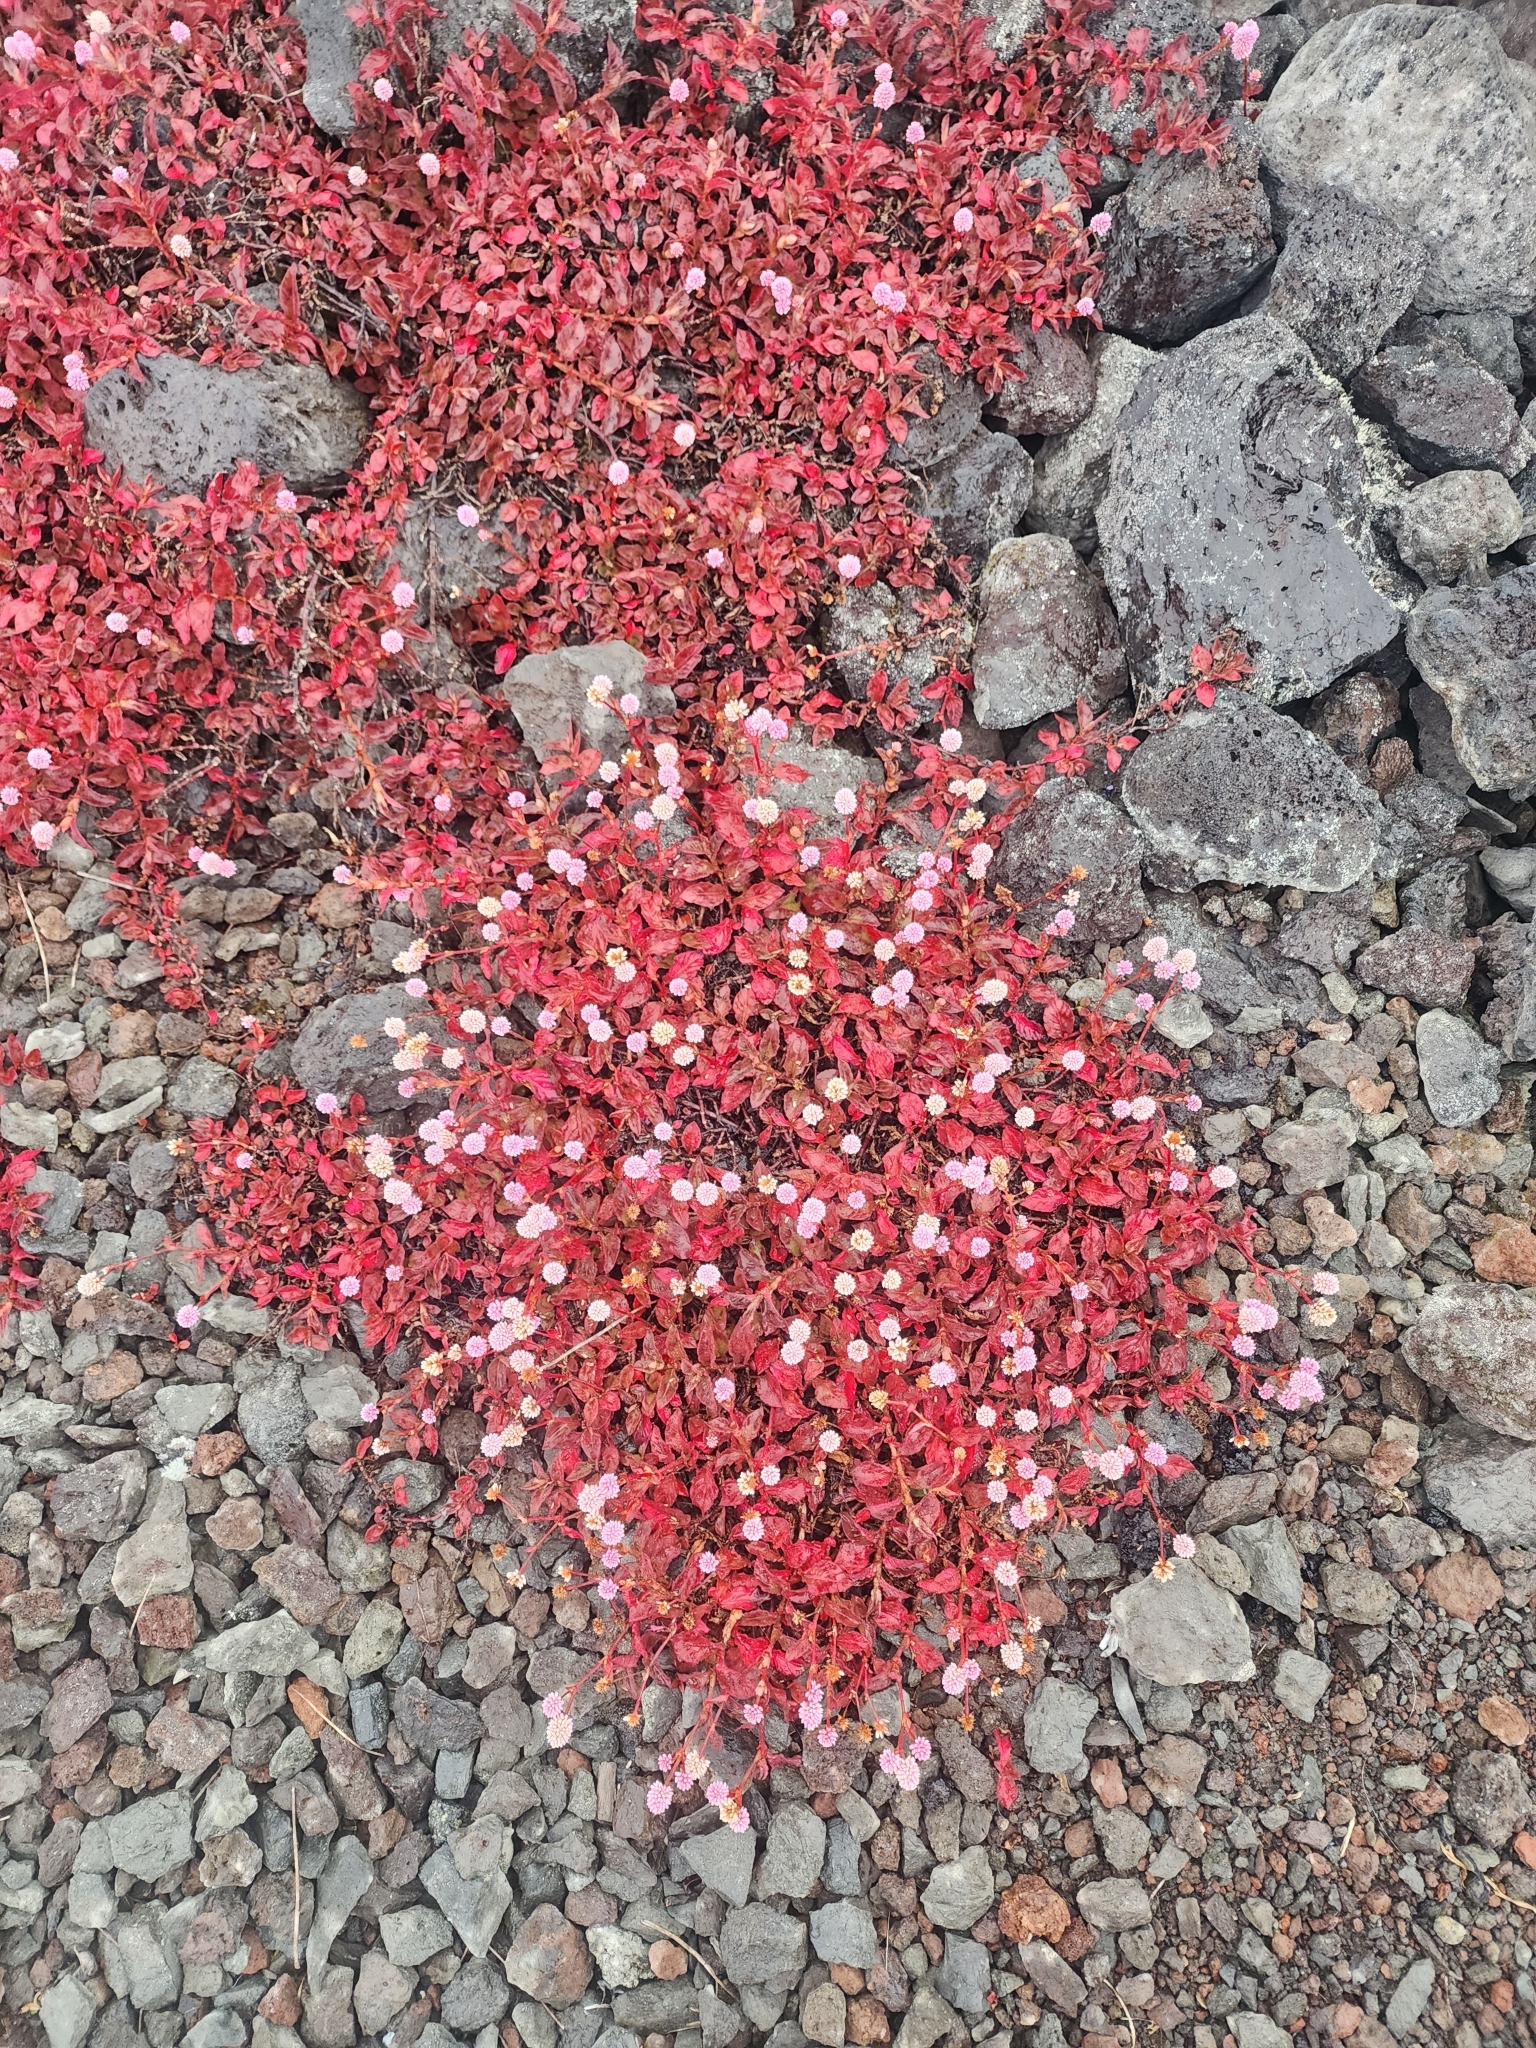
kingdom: Plantae
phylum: Tracheophyta
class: Magnoliopsida
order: Caryophyllales
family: Polygonaceae
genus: Persicaria
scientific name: Persicaria capitata
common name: Pinkhead smartweed
